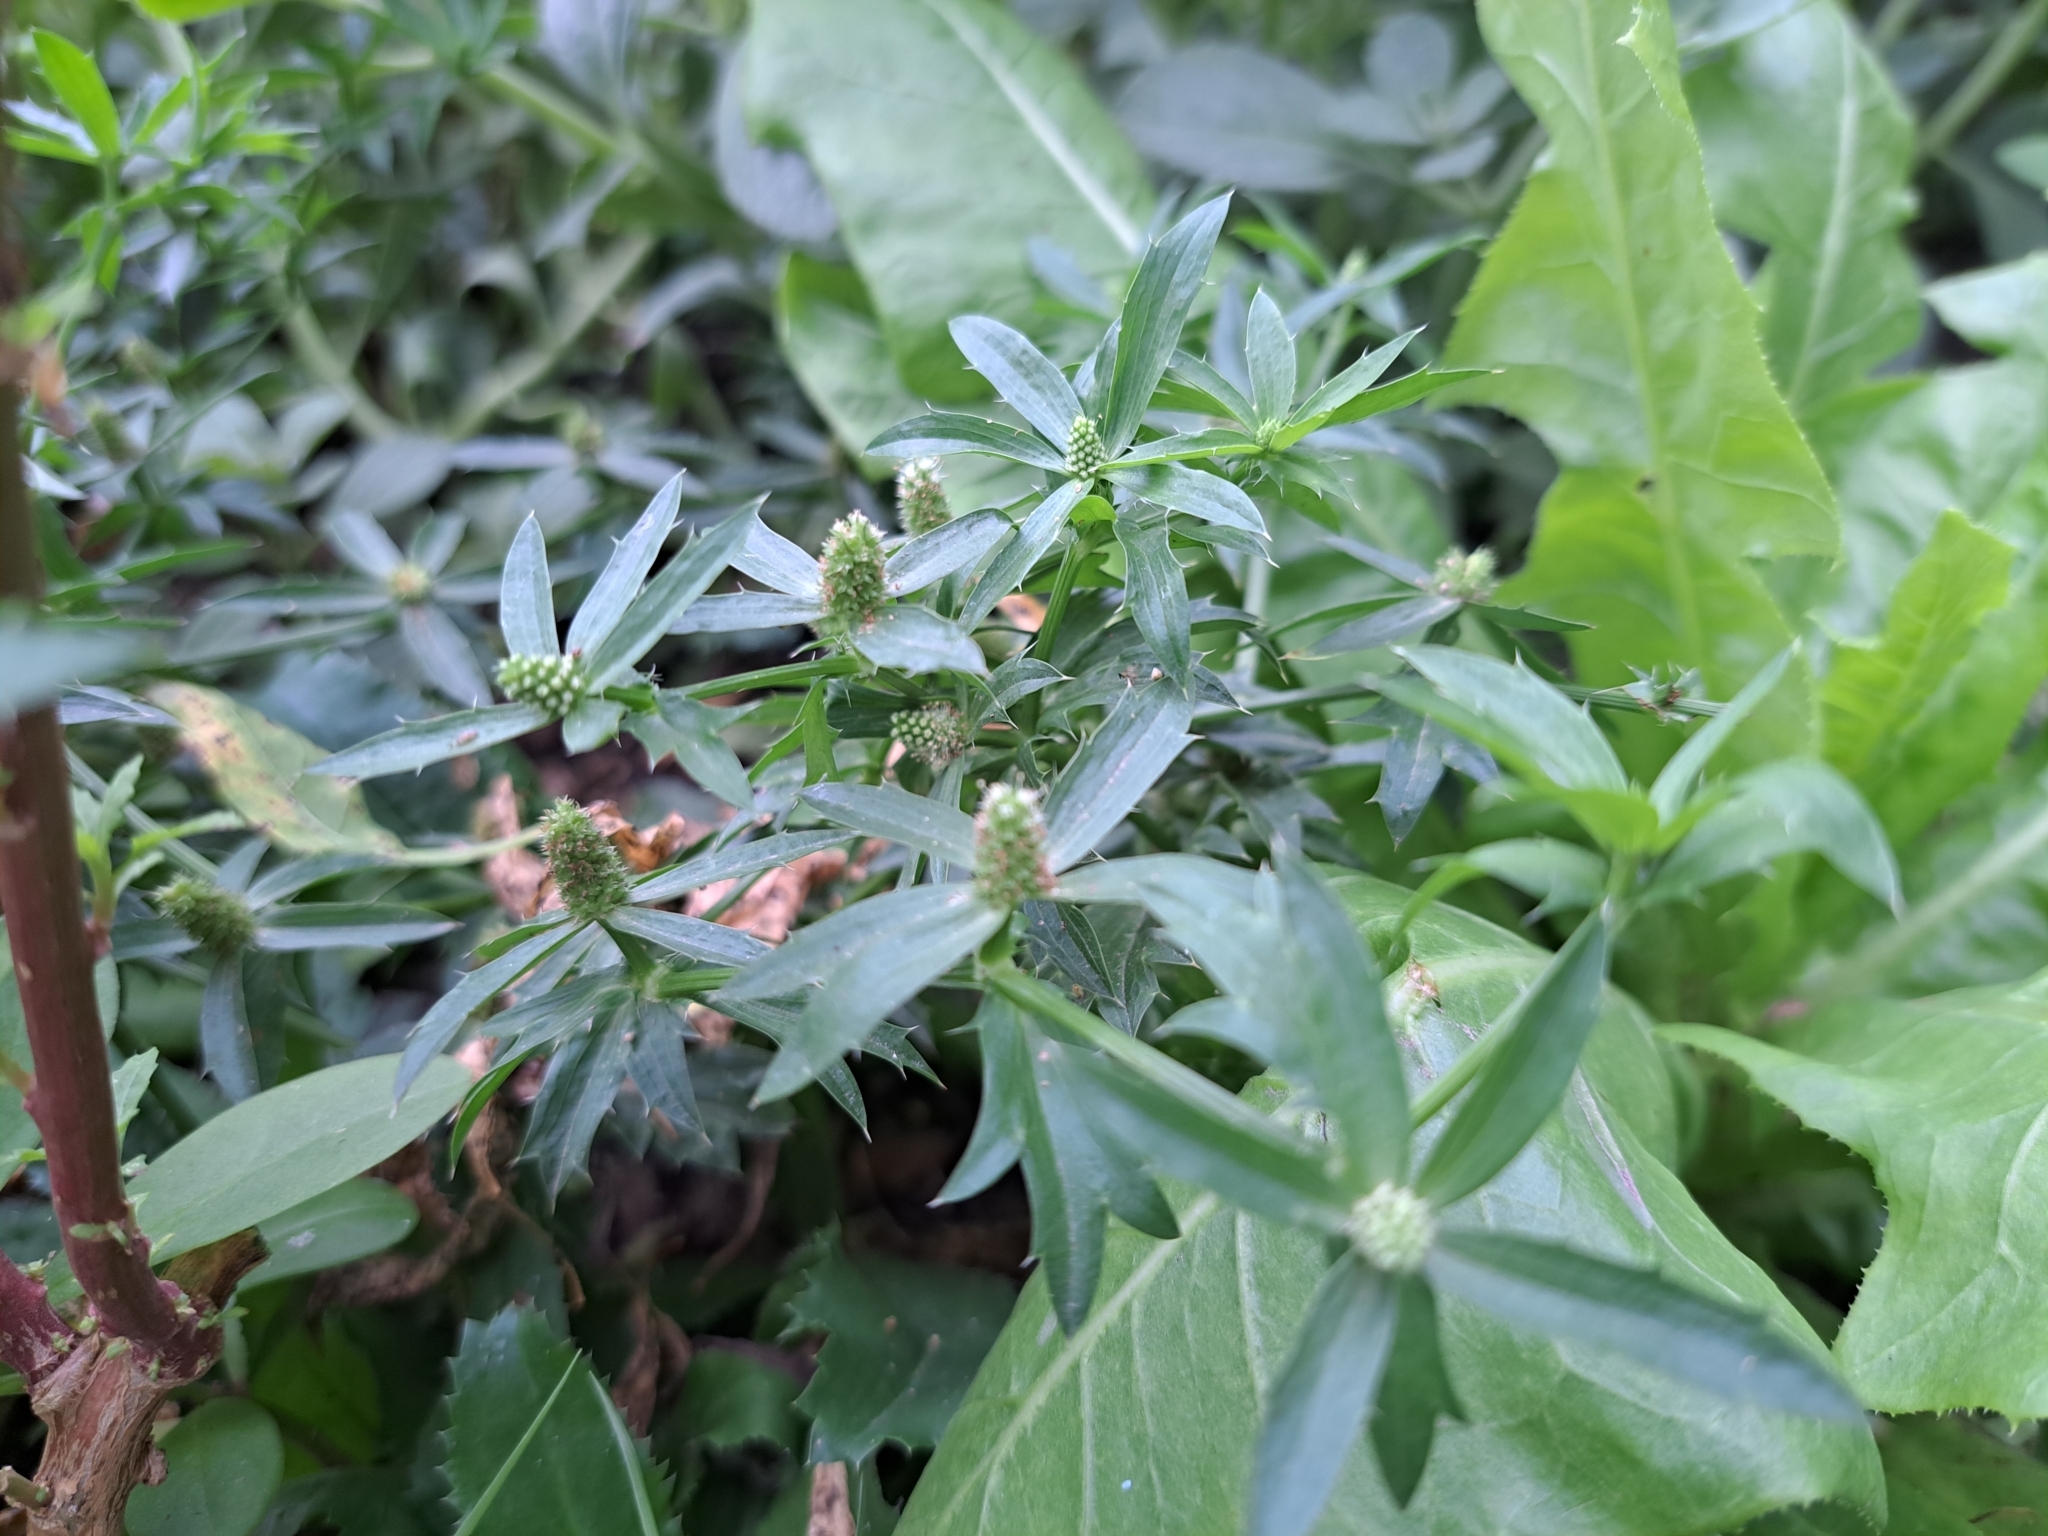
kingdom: Plantae
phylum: Tracheophyta
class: Magnoliopsida
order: Apiales
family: Apiaceae
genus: Eryngium
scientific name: Eryngium foetidum
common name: Fitweed
